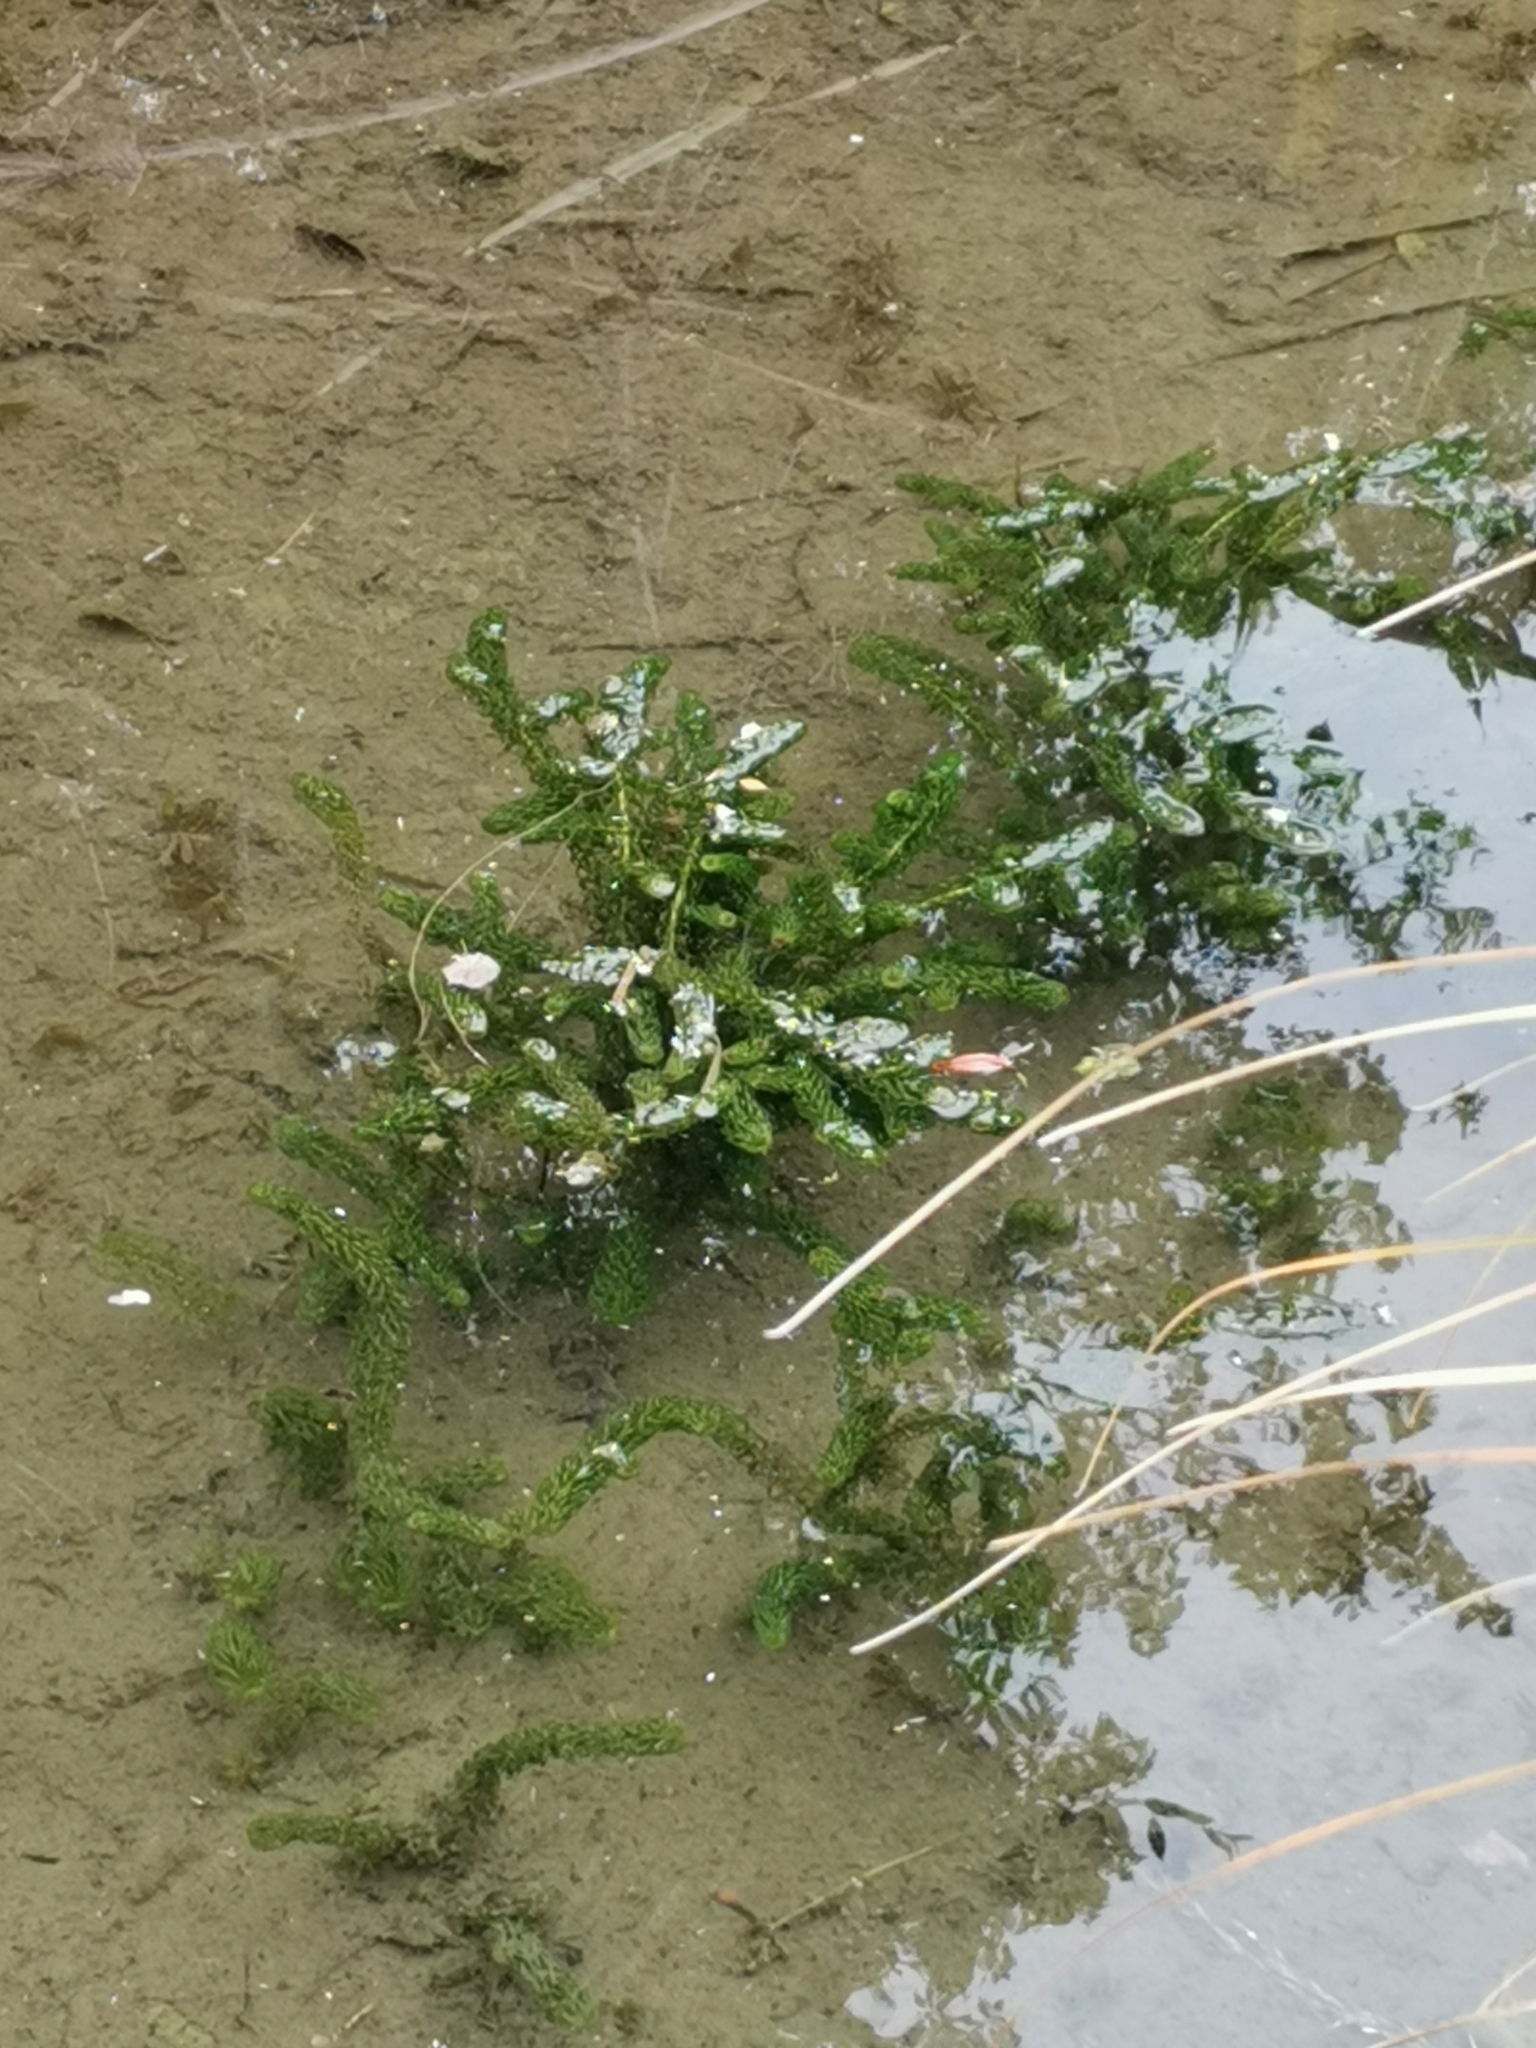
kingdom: Plantae
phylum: Tracheophyta
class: Liliopsida
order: Alismatales
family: Hydrocharitaceae
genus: Lagarosiphon
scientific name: Lagarosiphon major
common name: Curly waterweed
